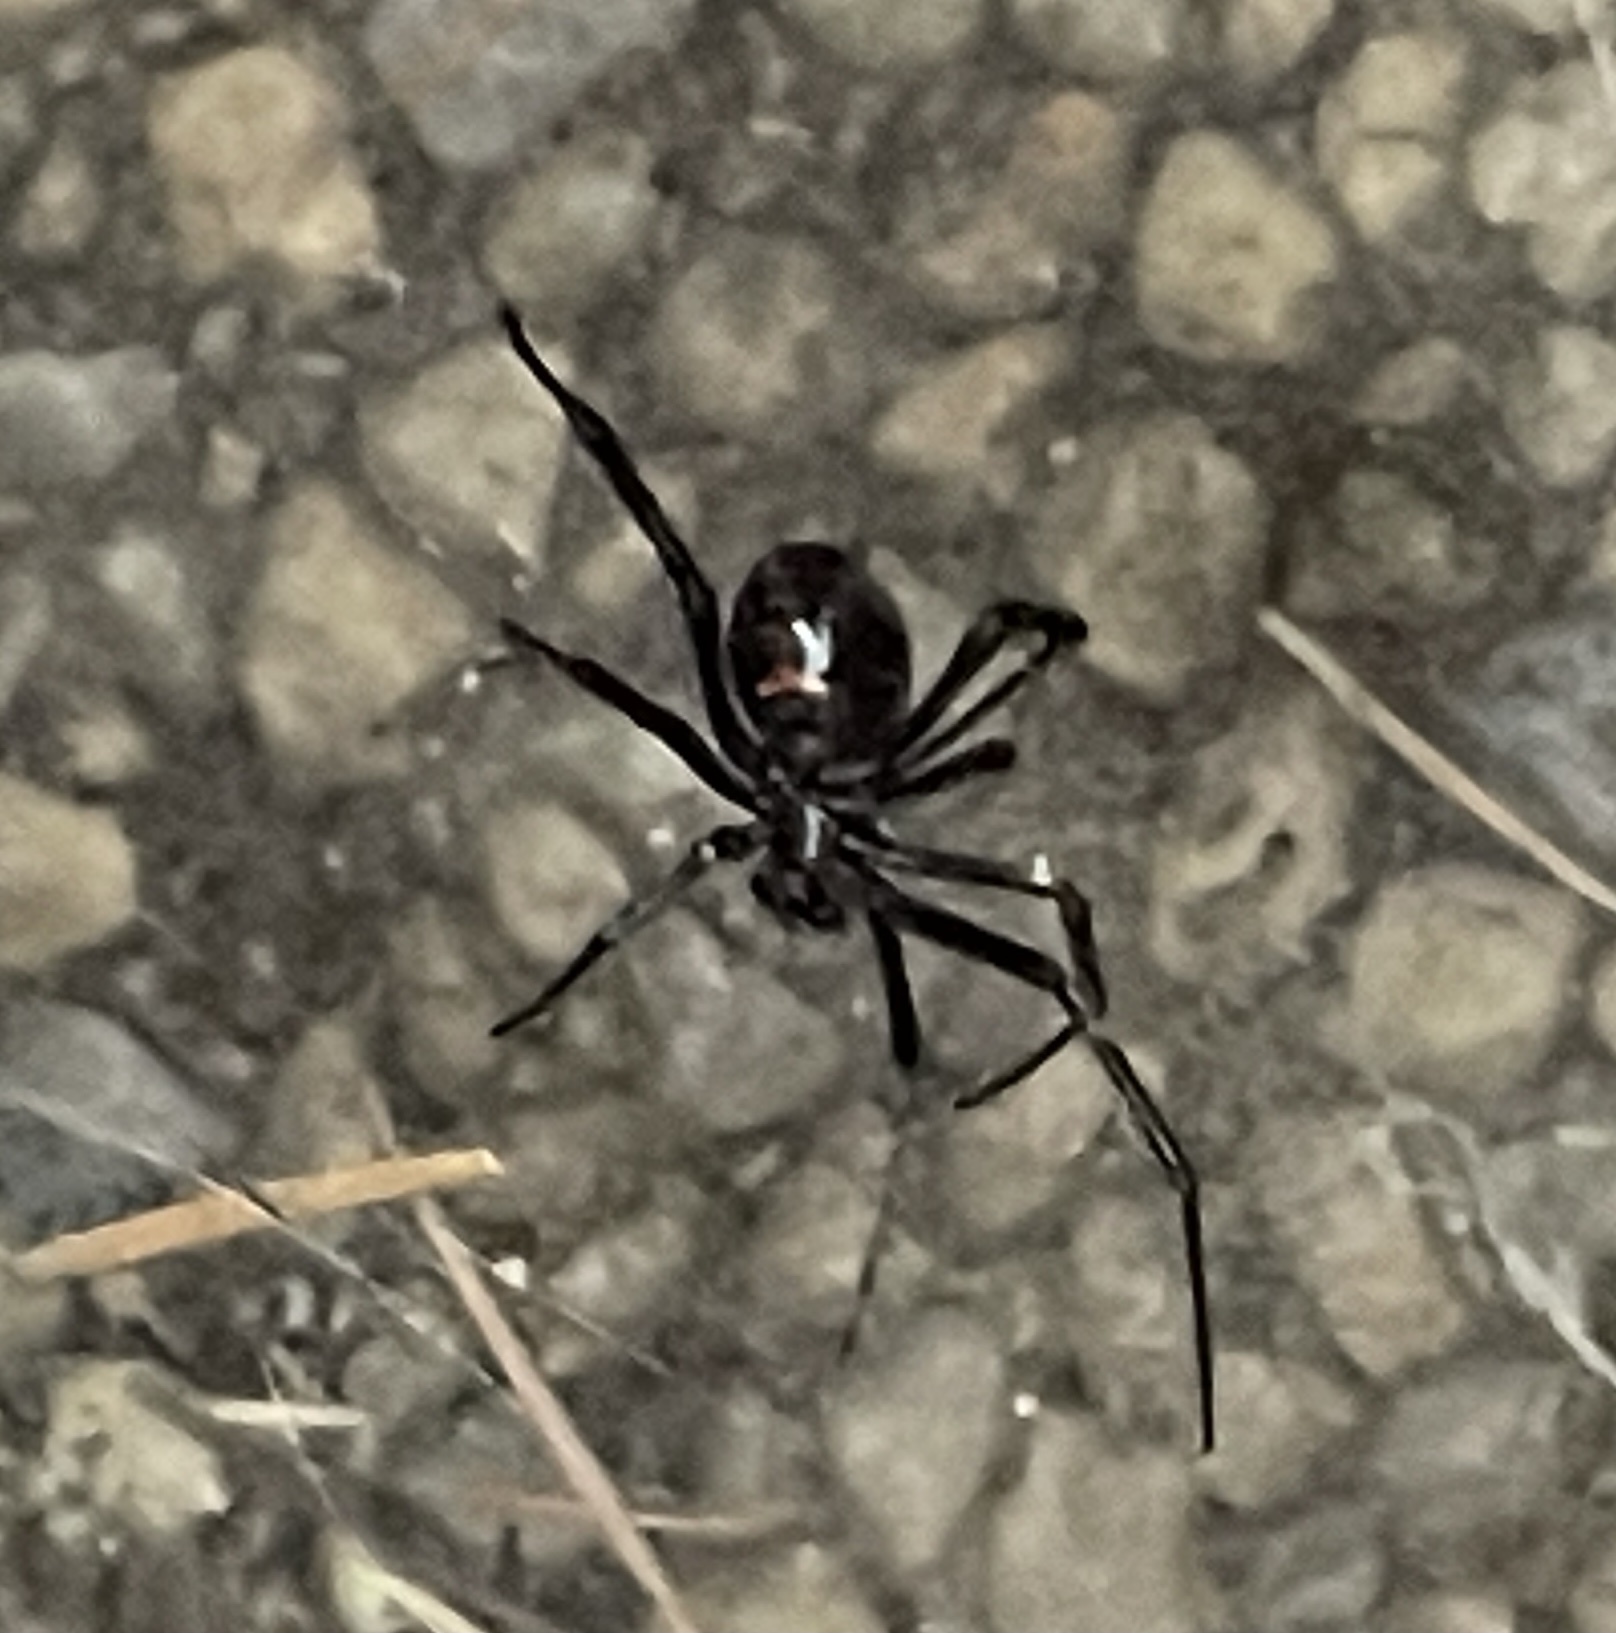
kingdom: Animalia
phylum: Arthropoda
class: Arachnida
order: Araneae
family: Theridiidae
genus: Latrodectus
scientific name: Latrodectus hesperus
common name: Western black widow
